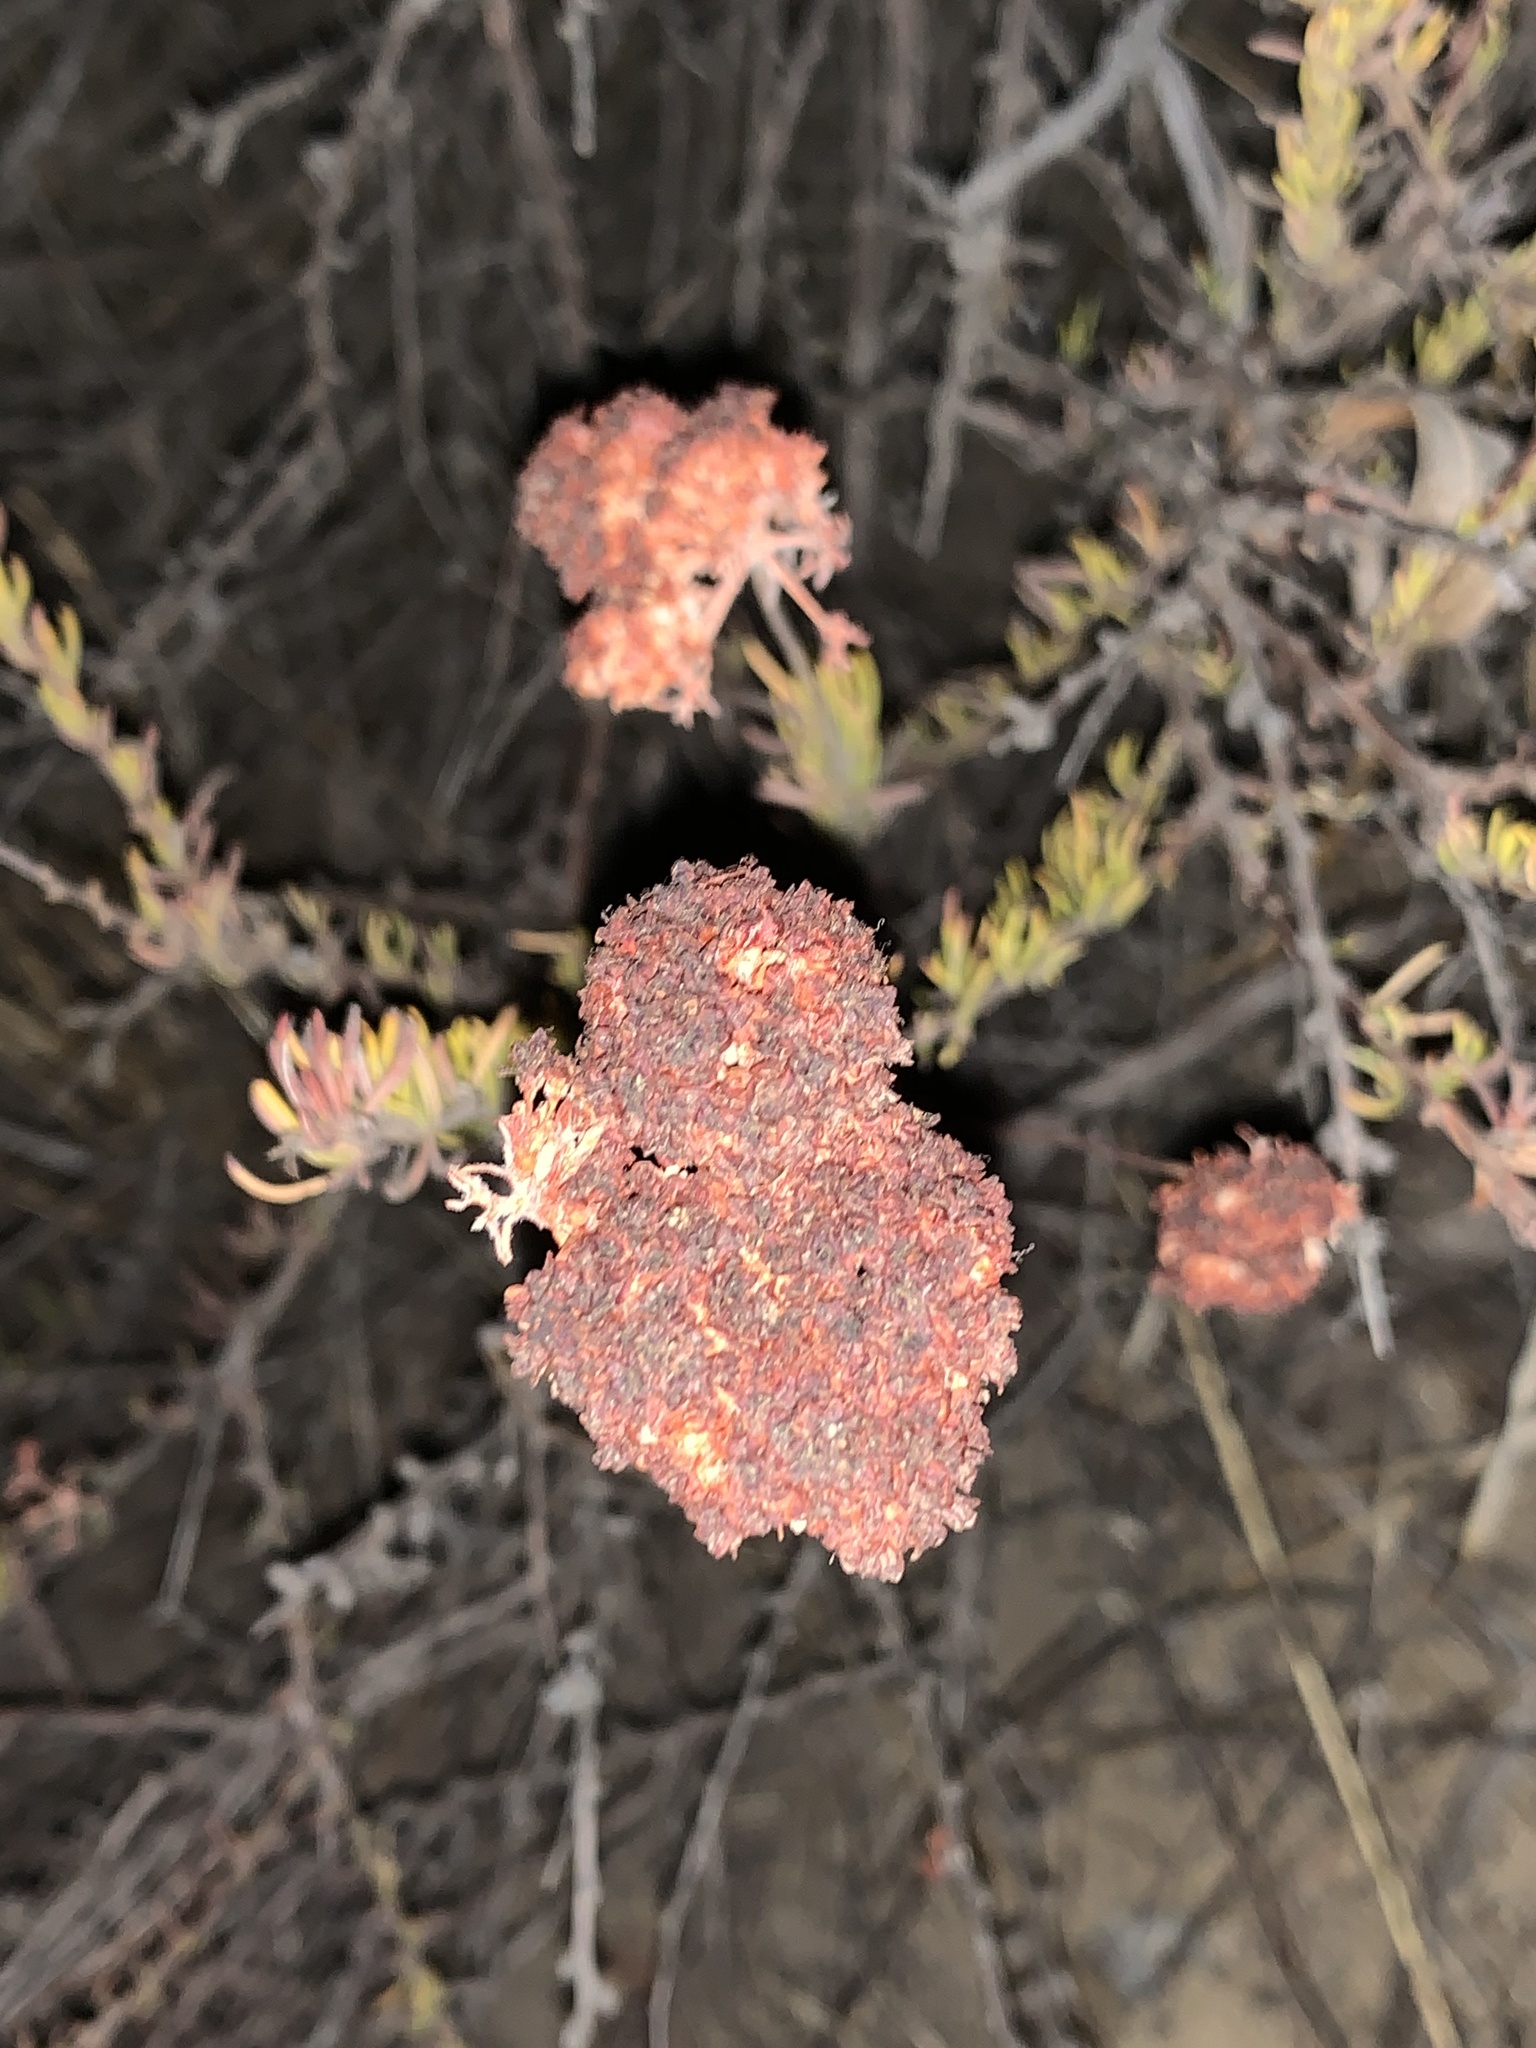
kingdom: Plantae
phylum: Tracheophyta
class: Magnoliopsida
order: Caryophyllales
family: Polygonaceae
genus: Eriogonum
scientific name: Eriogonum fasciculatum
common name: California wild buckwheat
